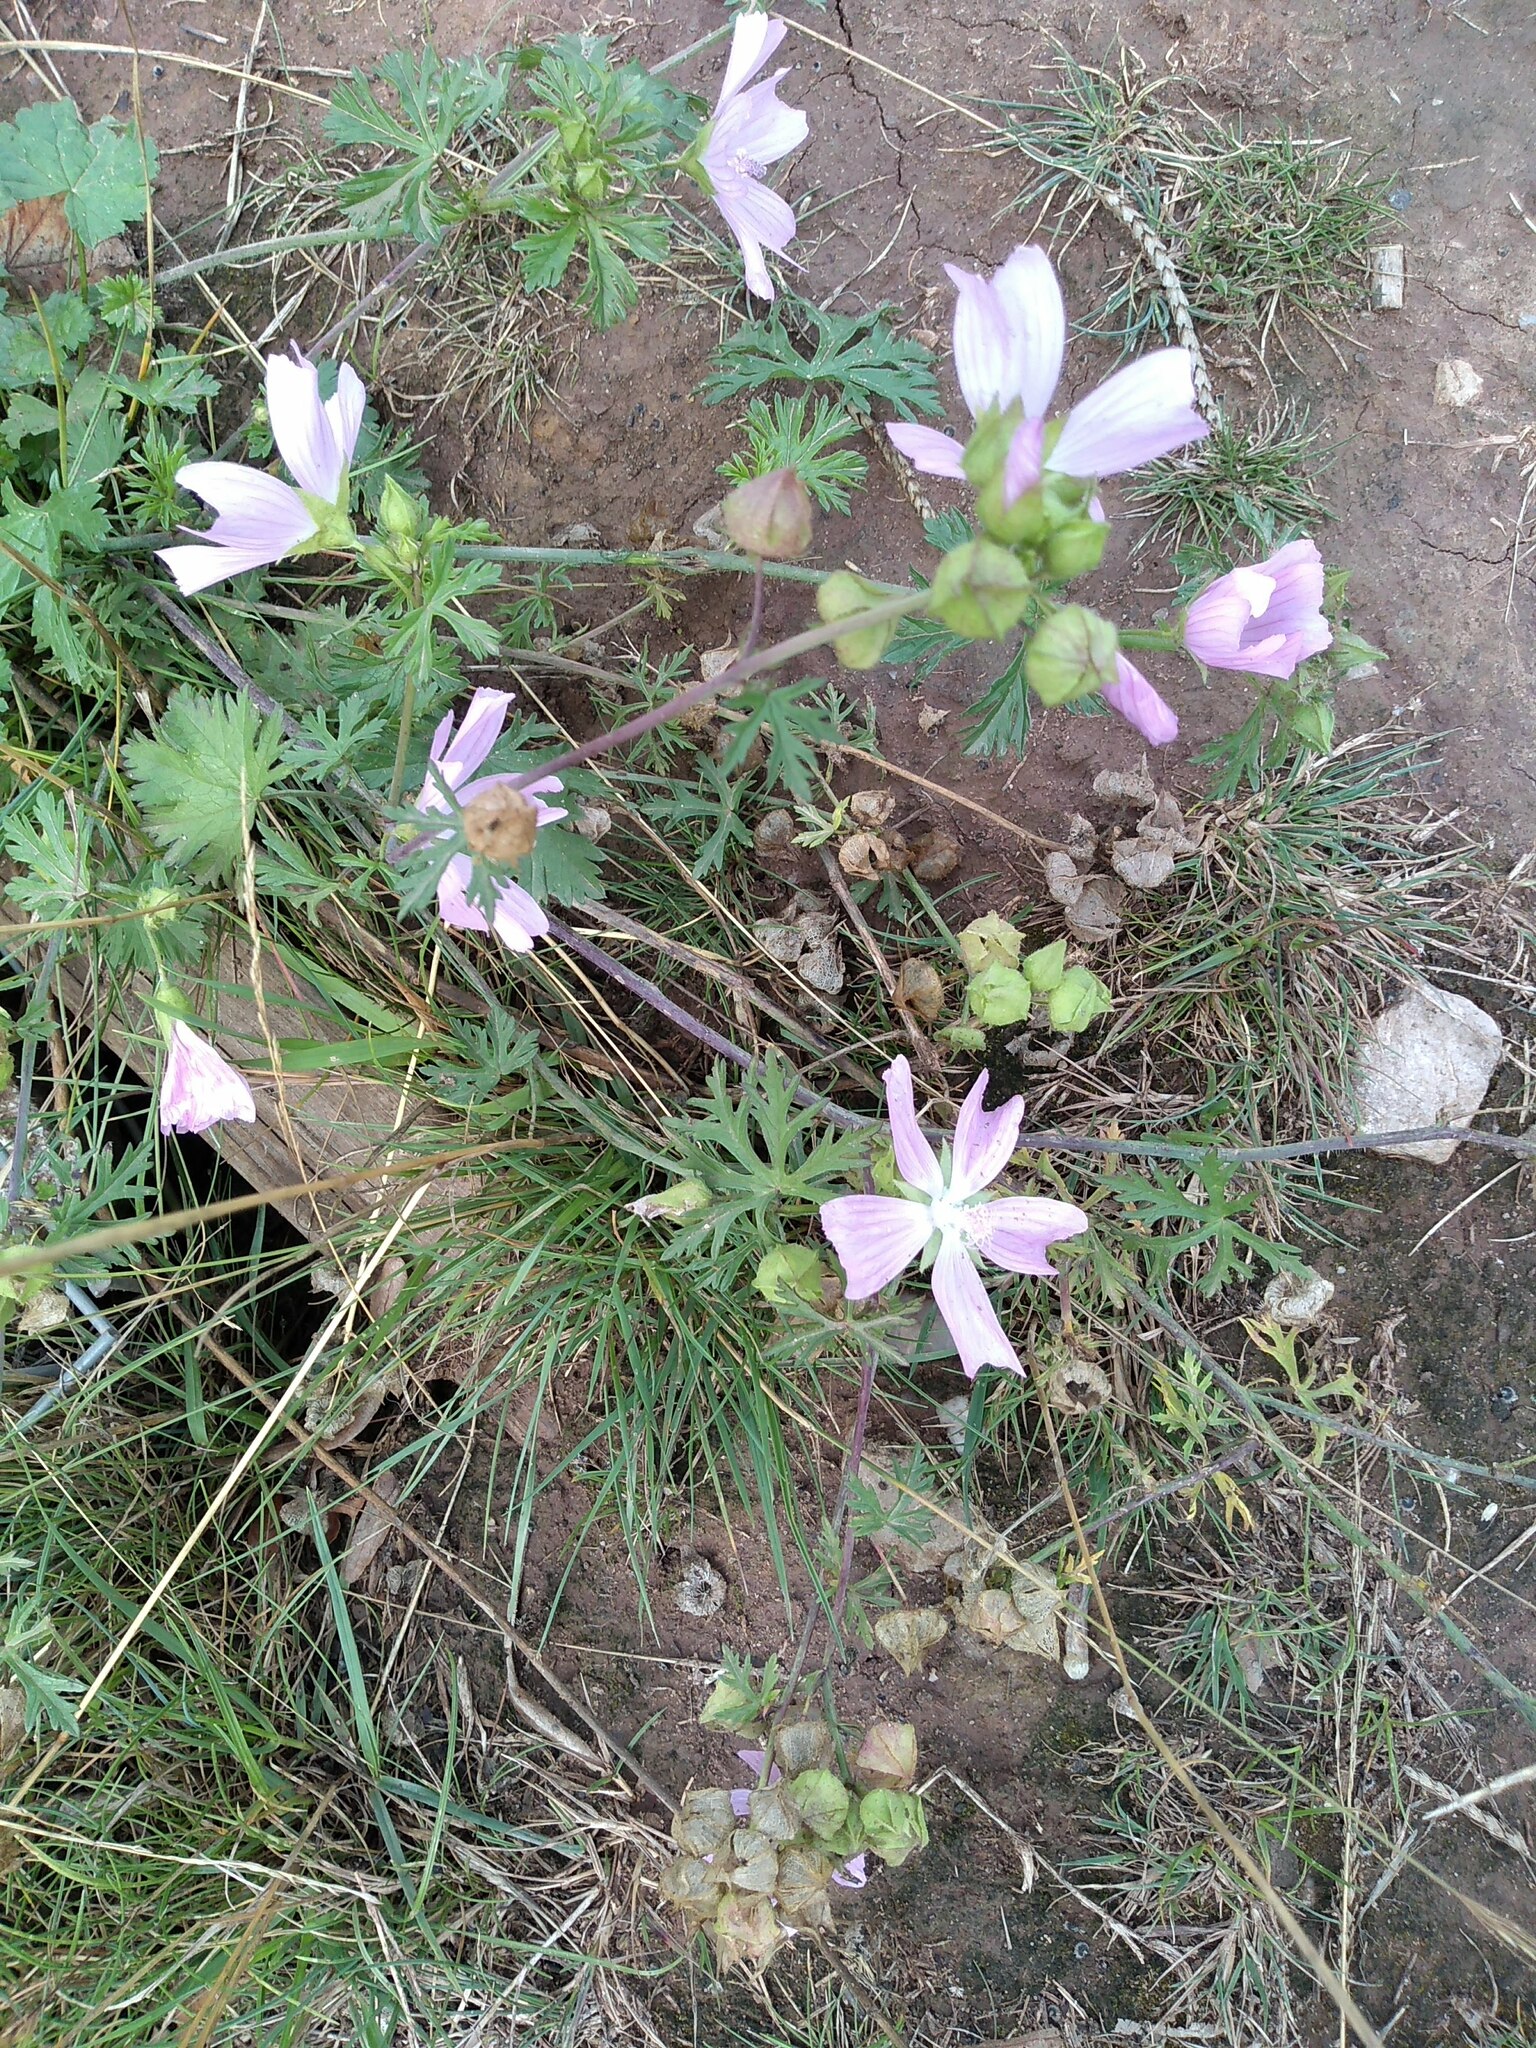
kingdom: Plantae
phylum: Tracheophyta
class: Magnoliopsida
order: Malvales
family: Malvaceae
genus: Malva
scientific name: Malva moschata
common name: Musk mallow
